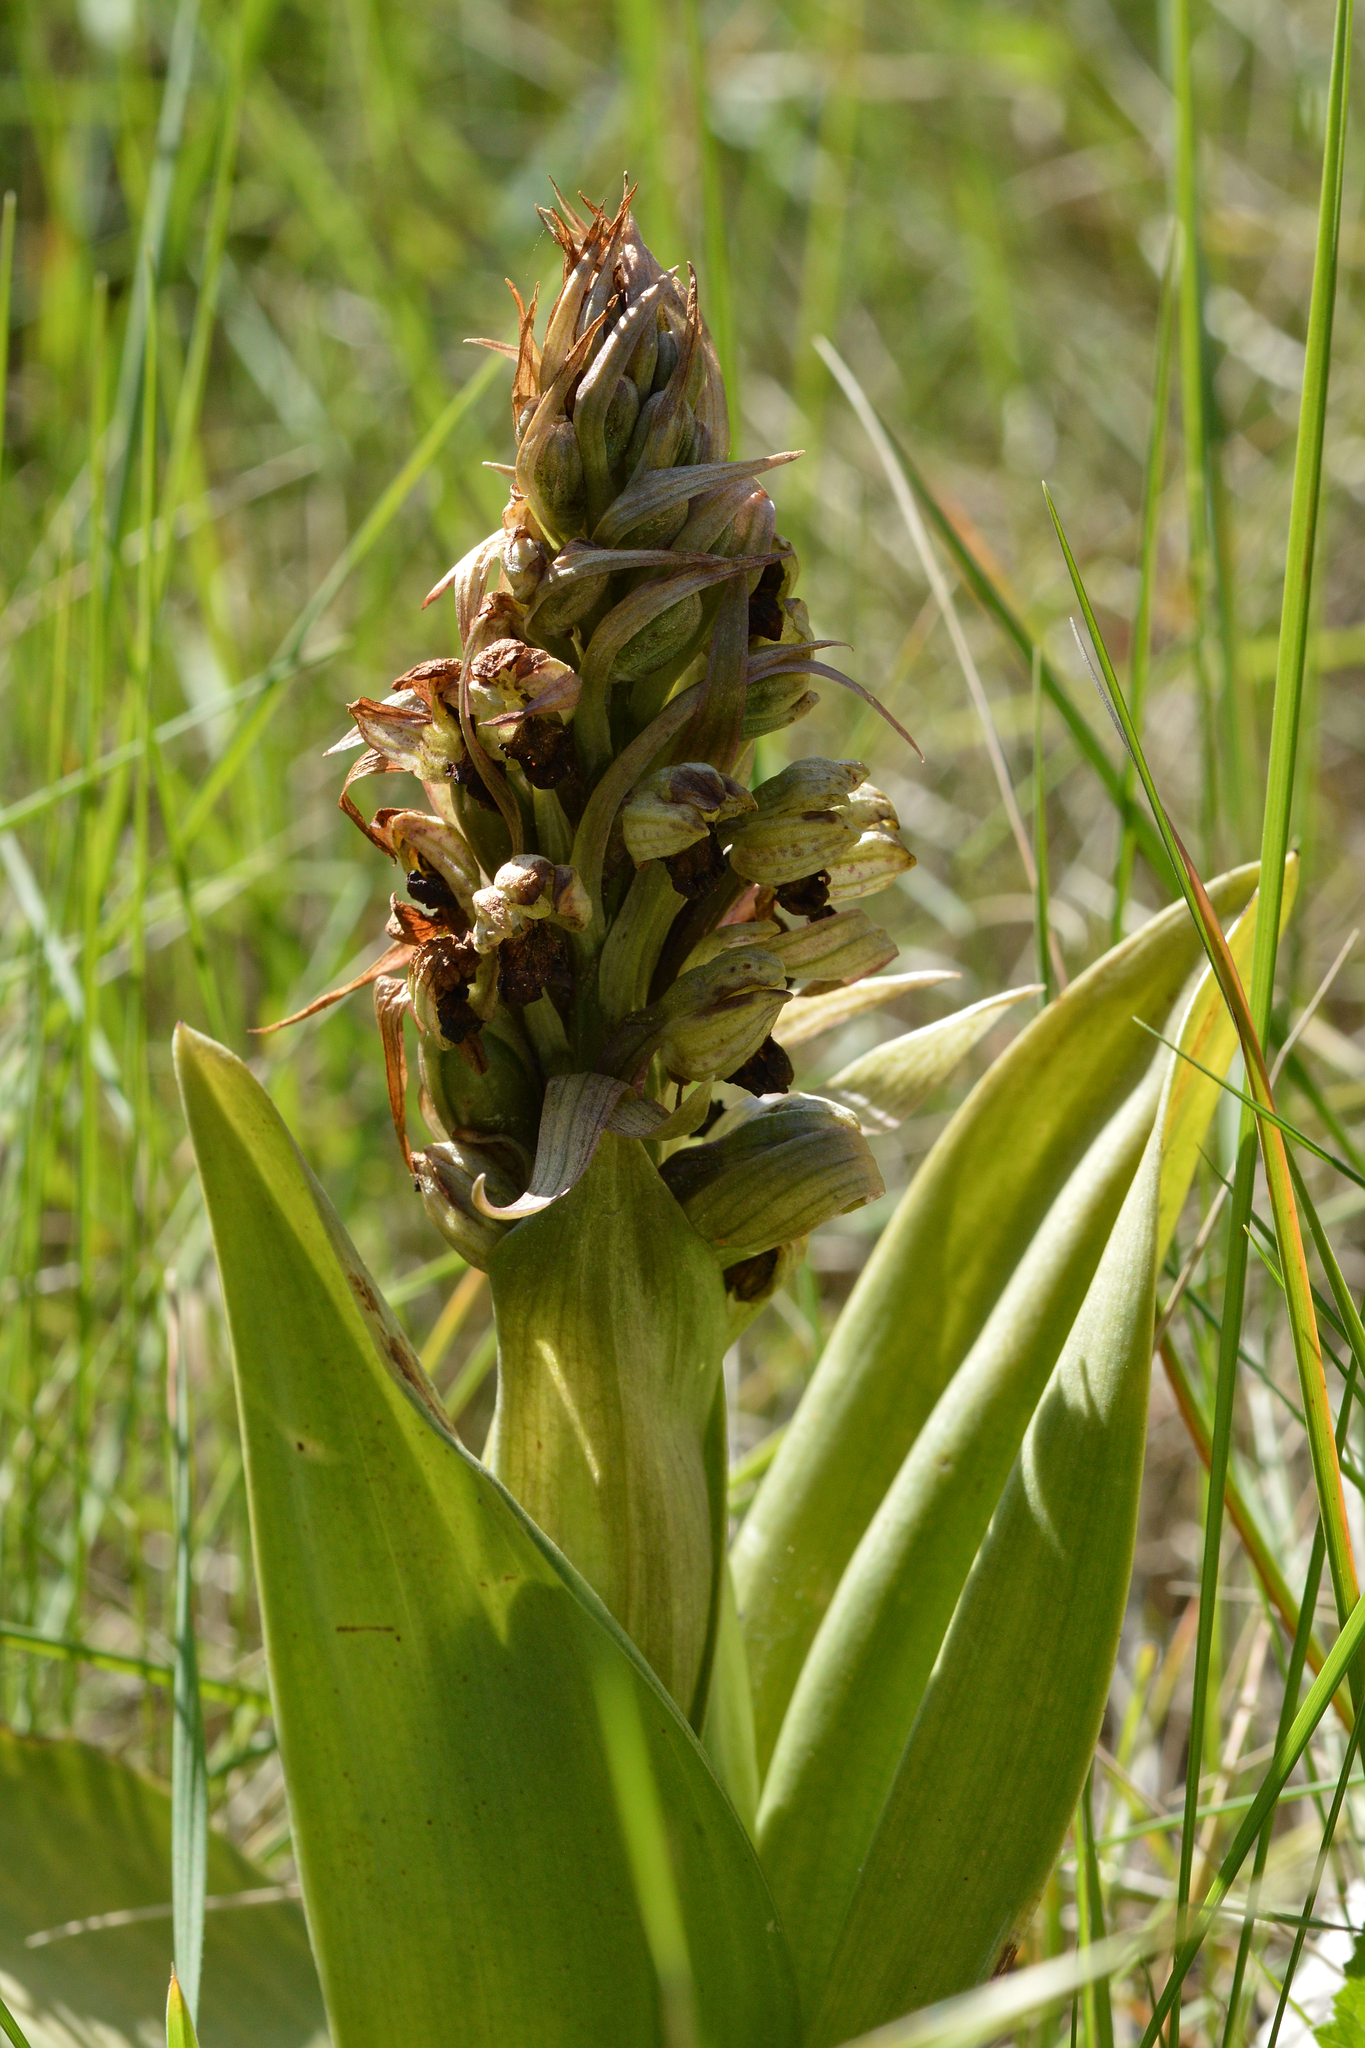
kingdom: Plantae
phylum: Tracheophyta
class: Liliopsida
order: Asparagales
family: Orchidaceae
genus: Himantoglossum
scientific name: Himantoglossum robertianum
